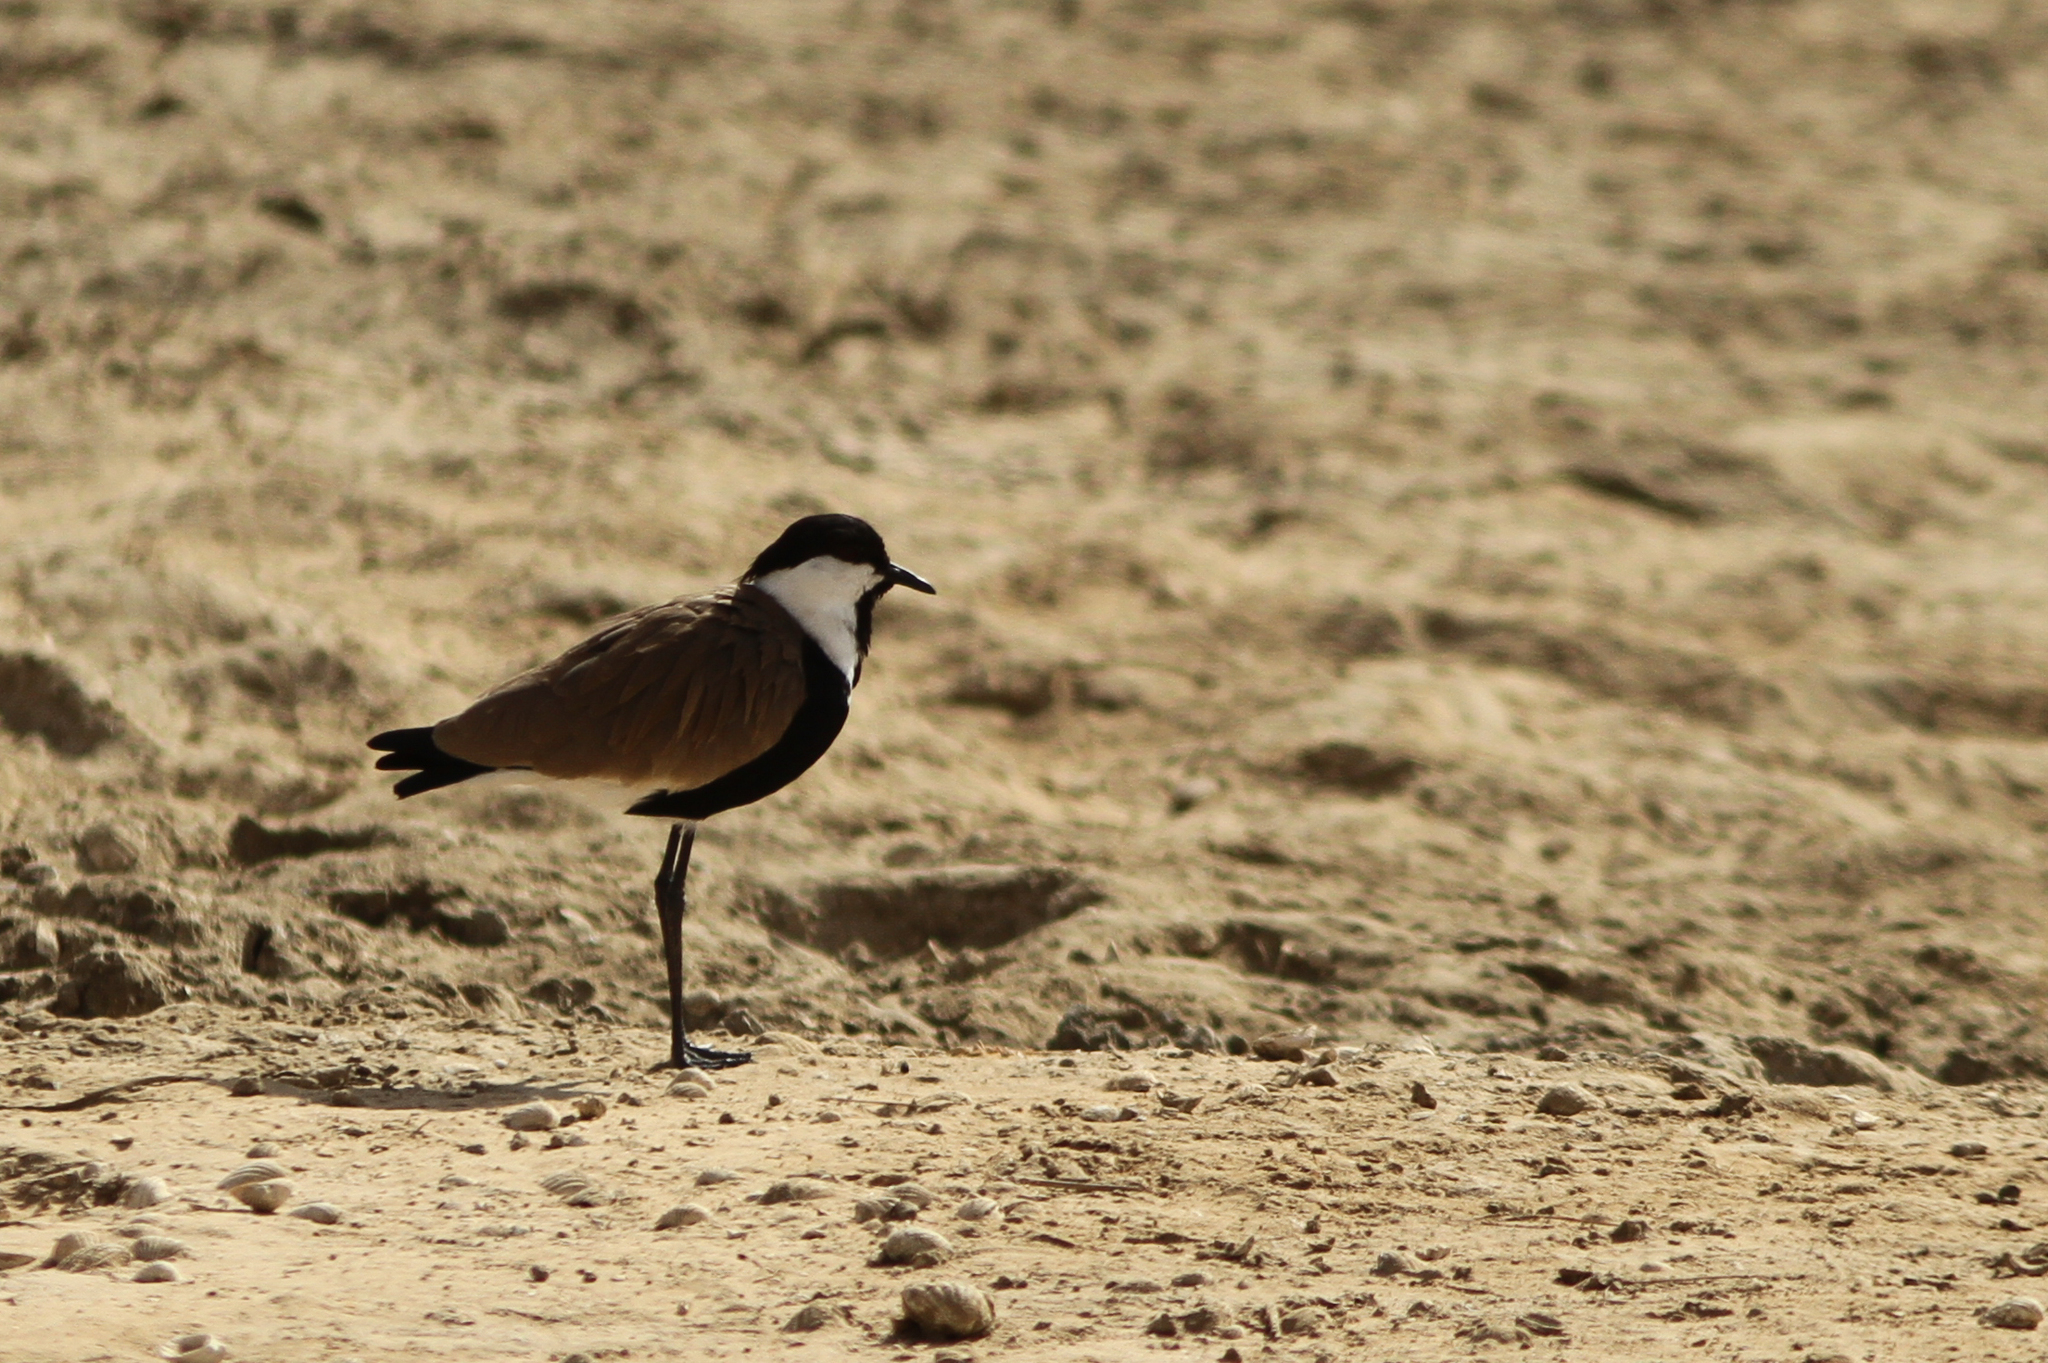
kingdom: Animalia
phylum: Chordata
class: Aves
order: Charadriiformes
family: Charadriidae
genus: Vanellus
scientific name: Vanellus spinosus
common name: Spur-winged lapwing
